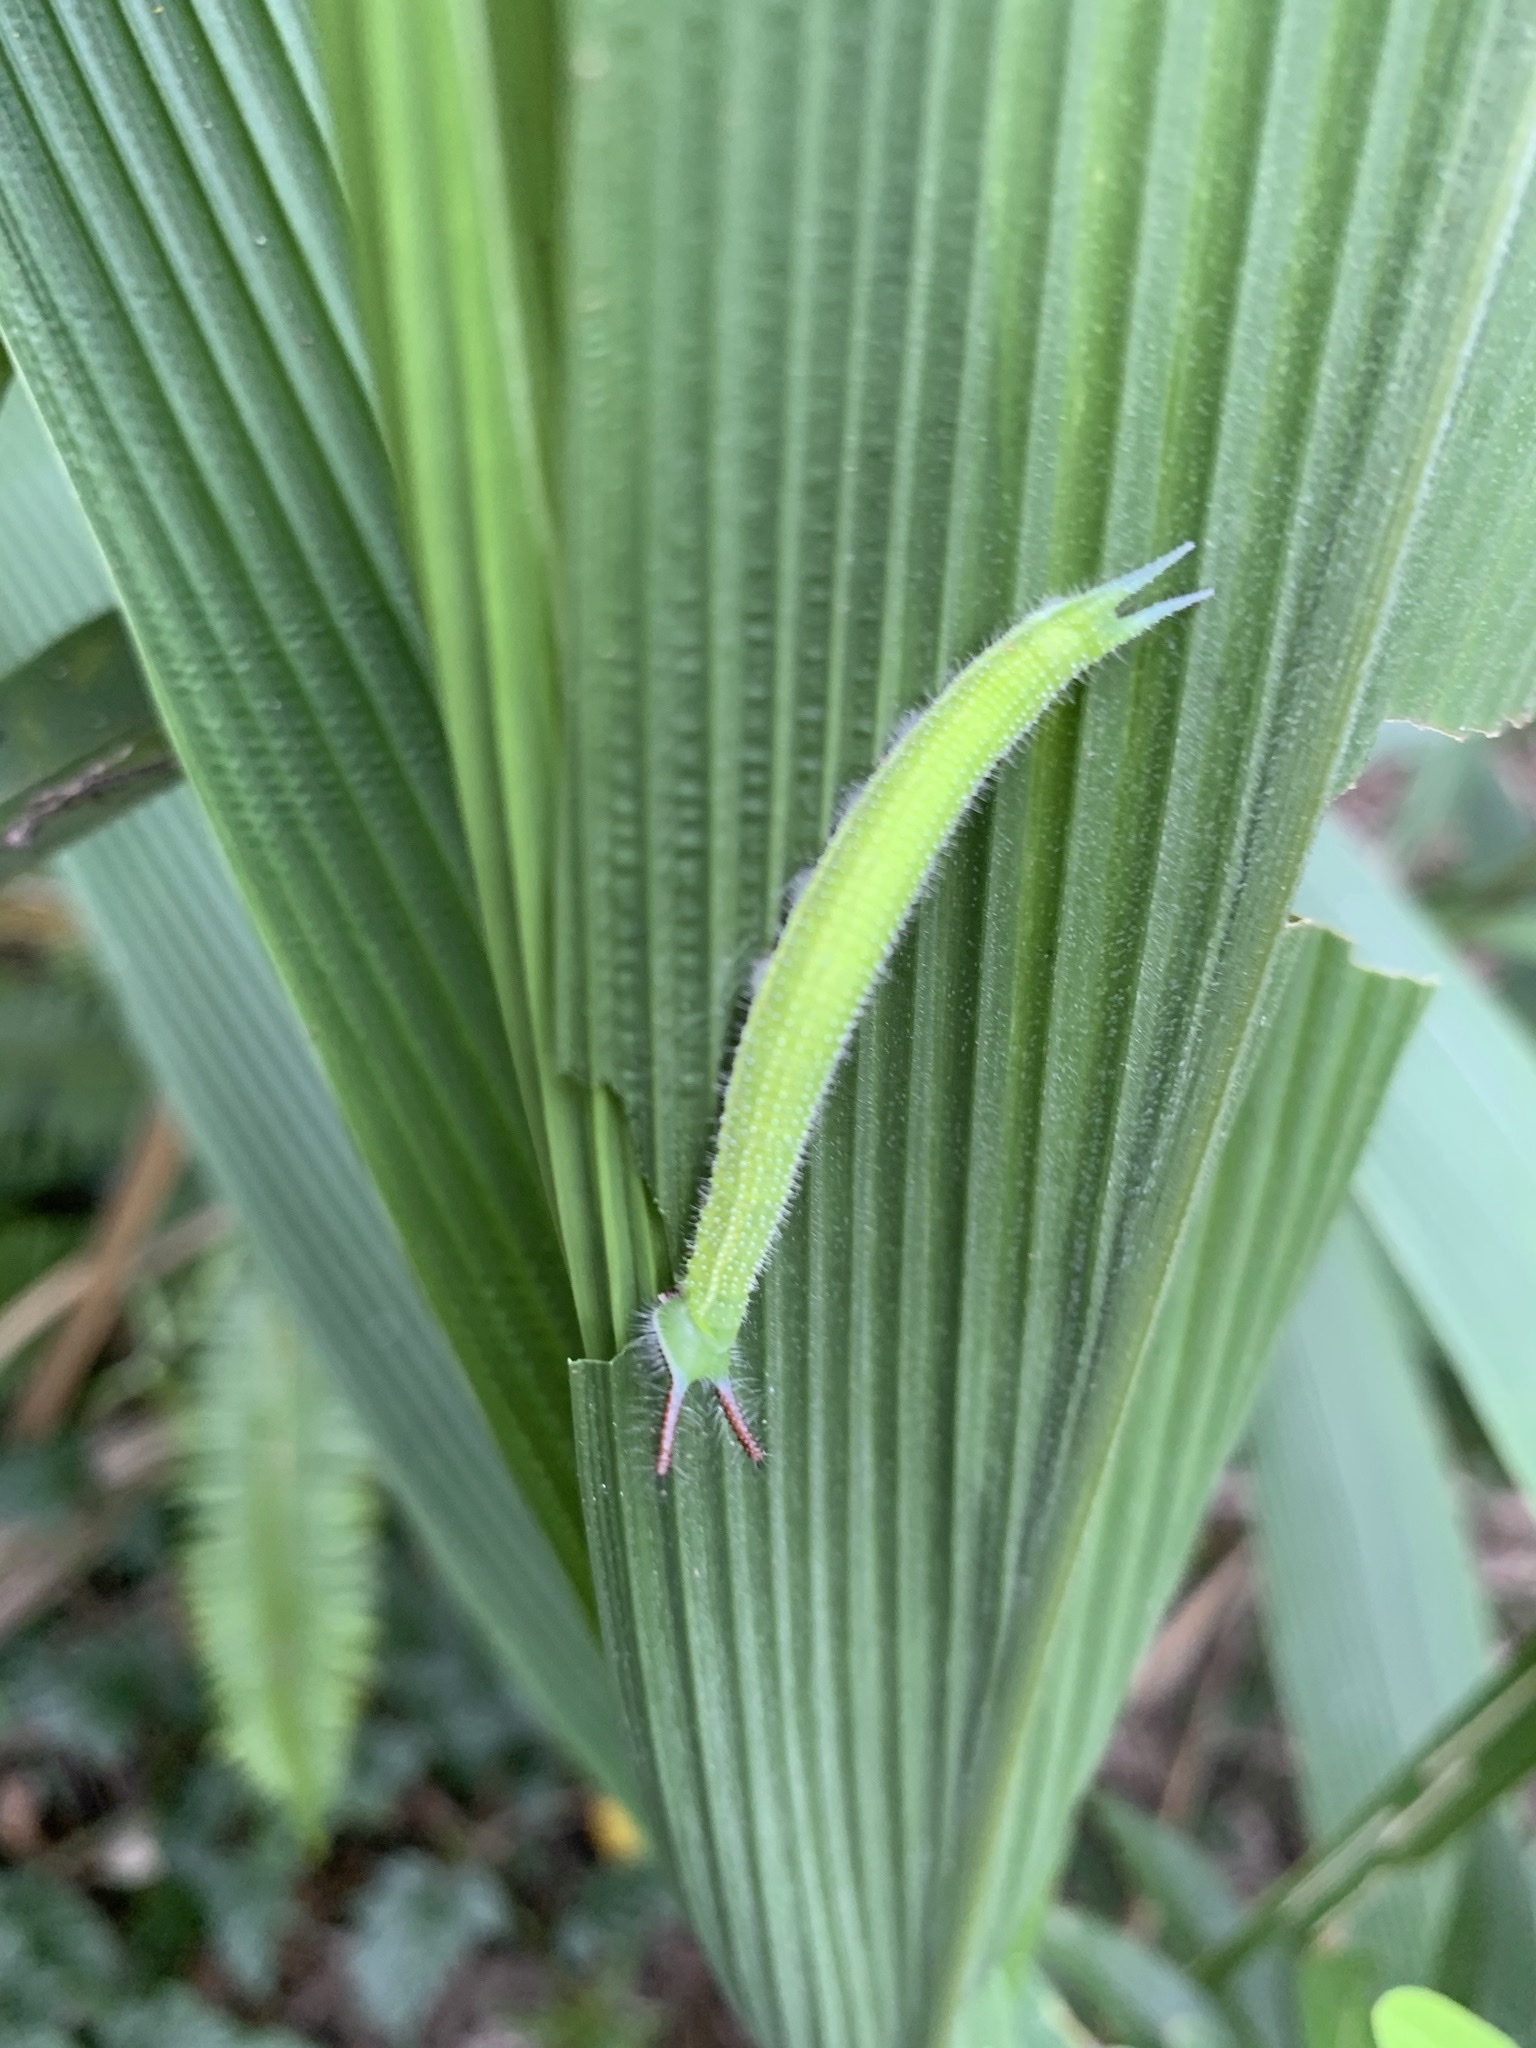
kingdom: Animalia
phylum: Arthropoda
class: Insecta
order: Lepidoptera
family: Nymphalidae
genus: Melanitis
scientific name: Melanitis phedima
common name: Dark evening brown
